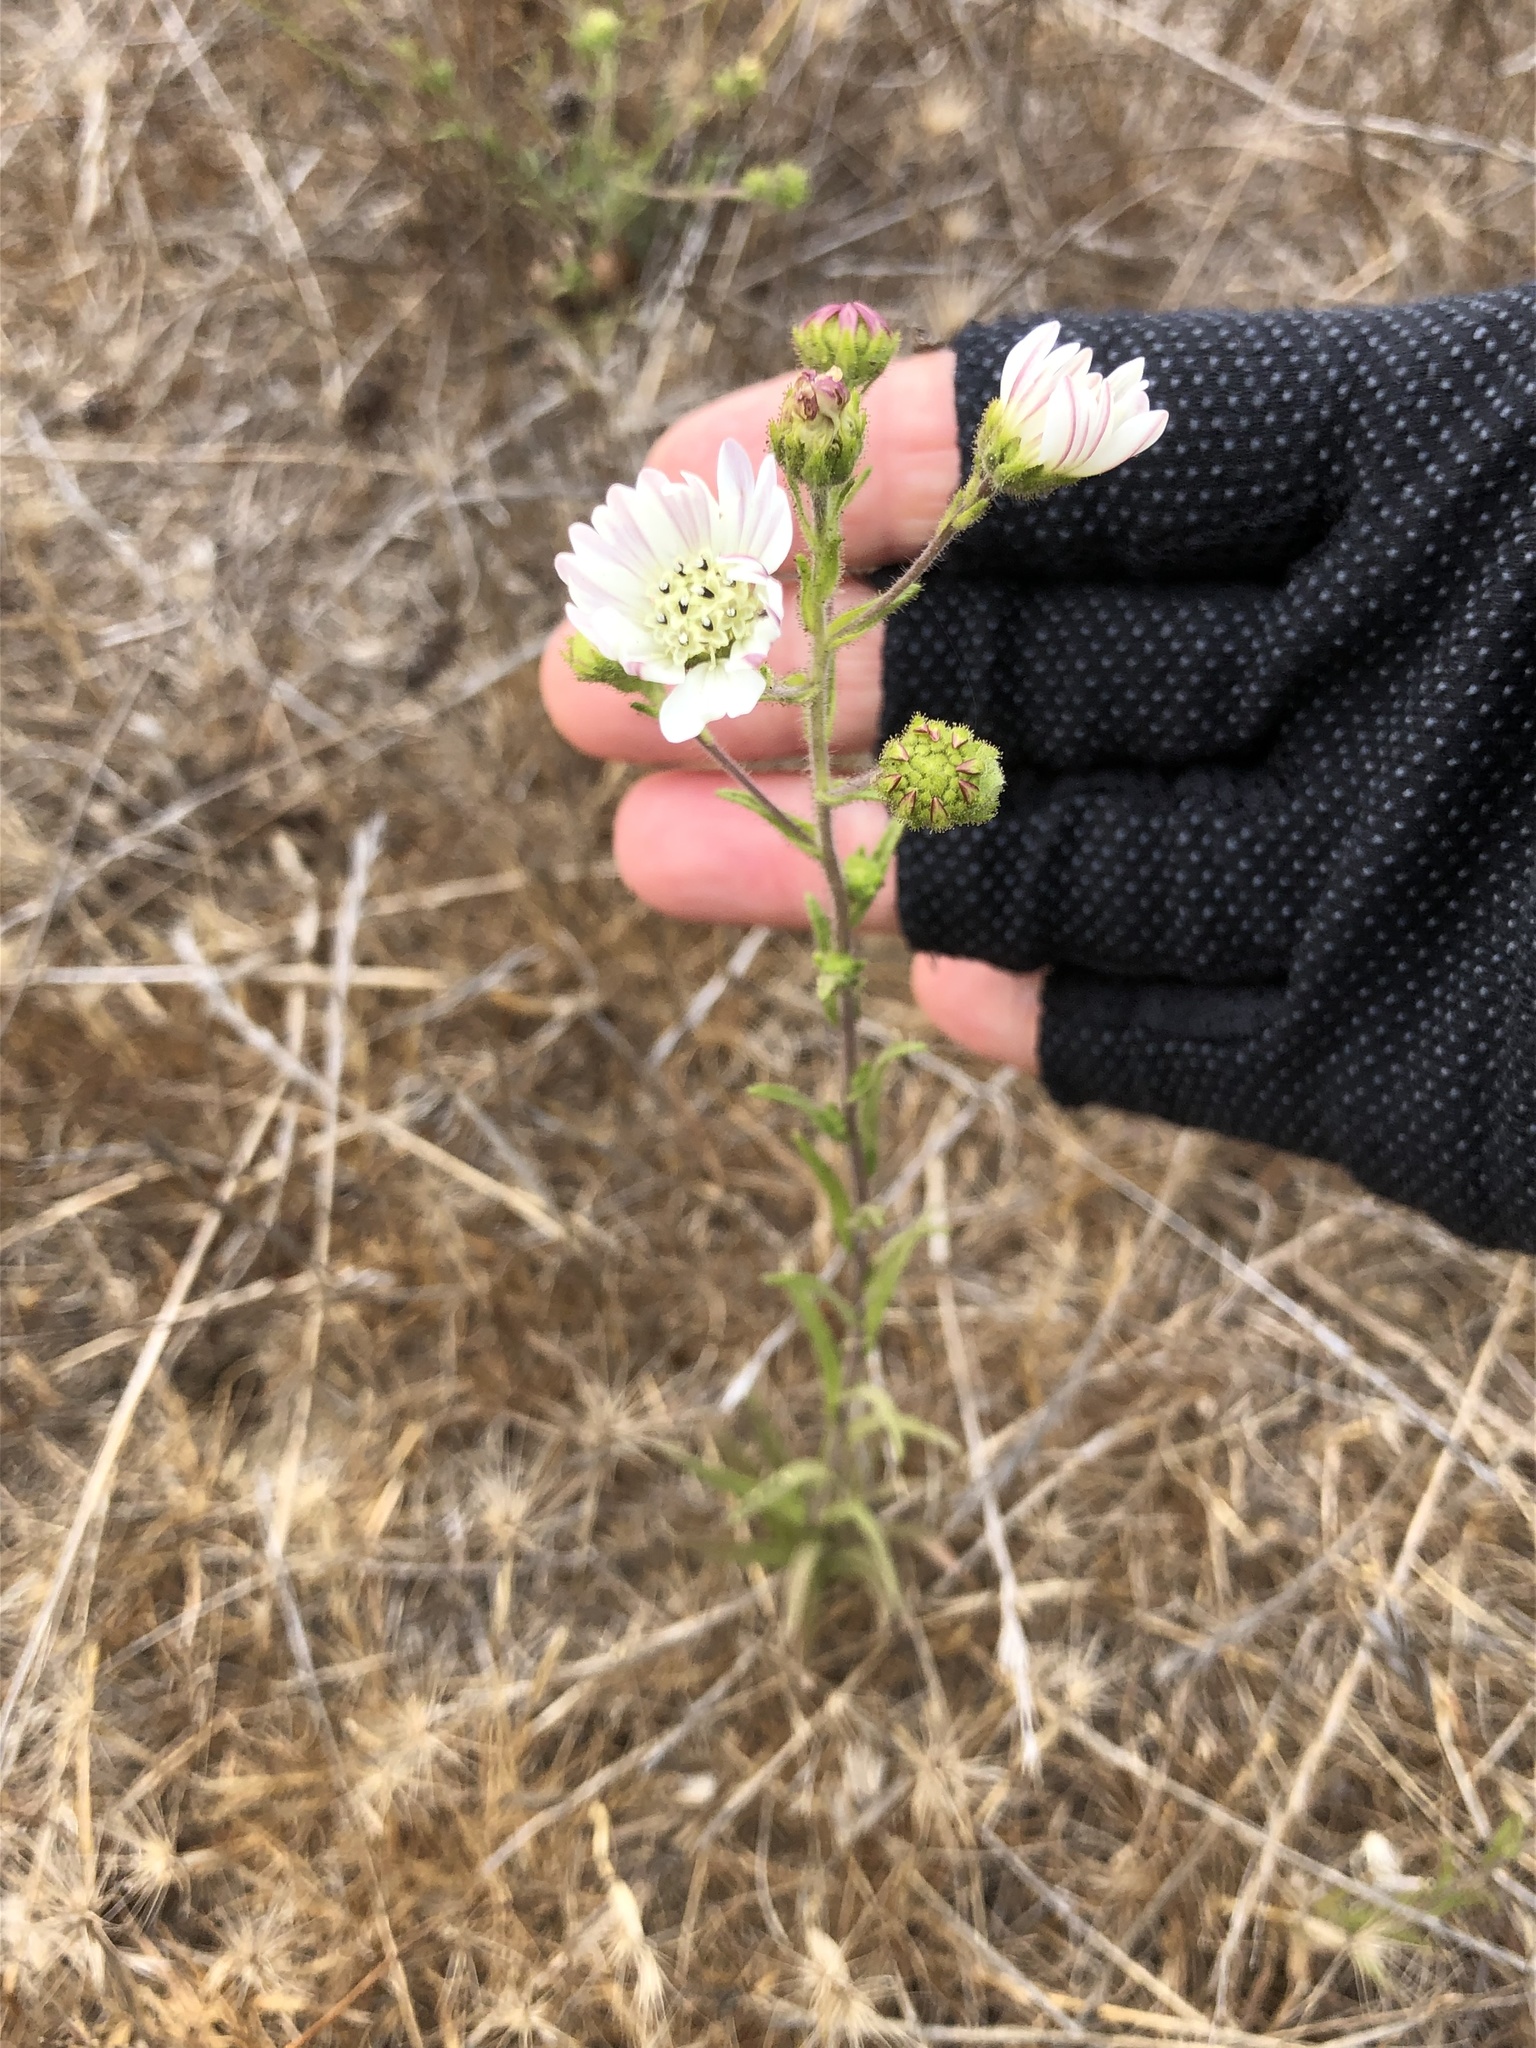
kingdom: Plantae
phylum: Tracheophyta
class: Magnoliopsida
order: Asterales
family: Asteraceae
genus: Hemizonia
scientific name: Hemizonia congesta
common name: Hayfield tarweed
